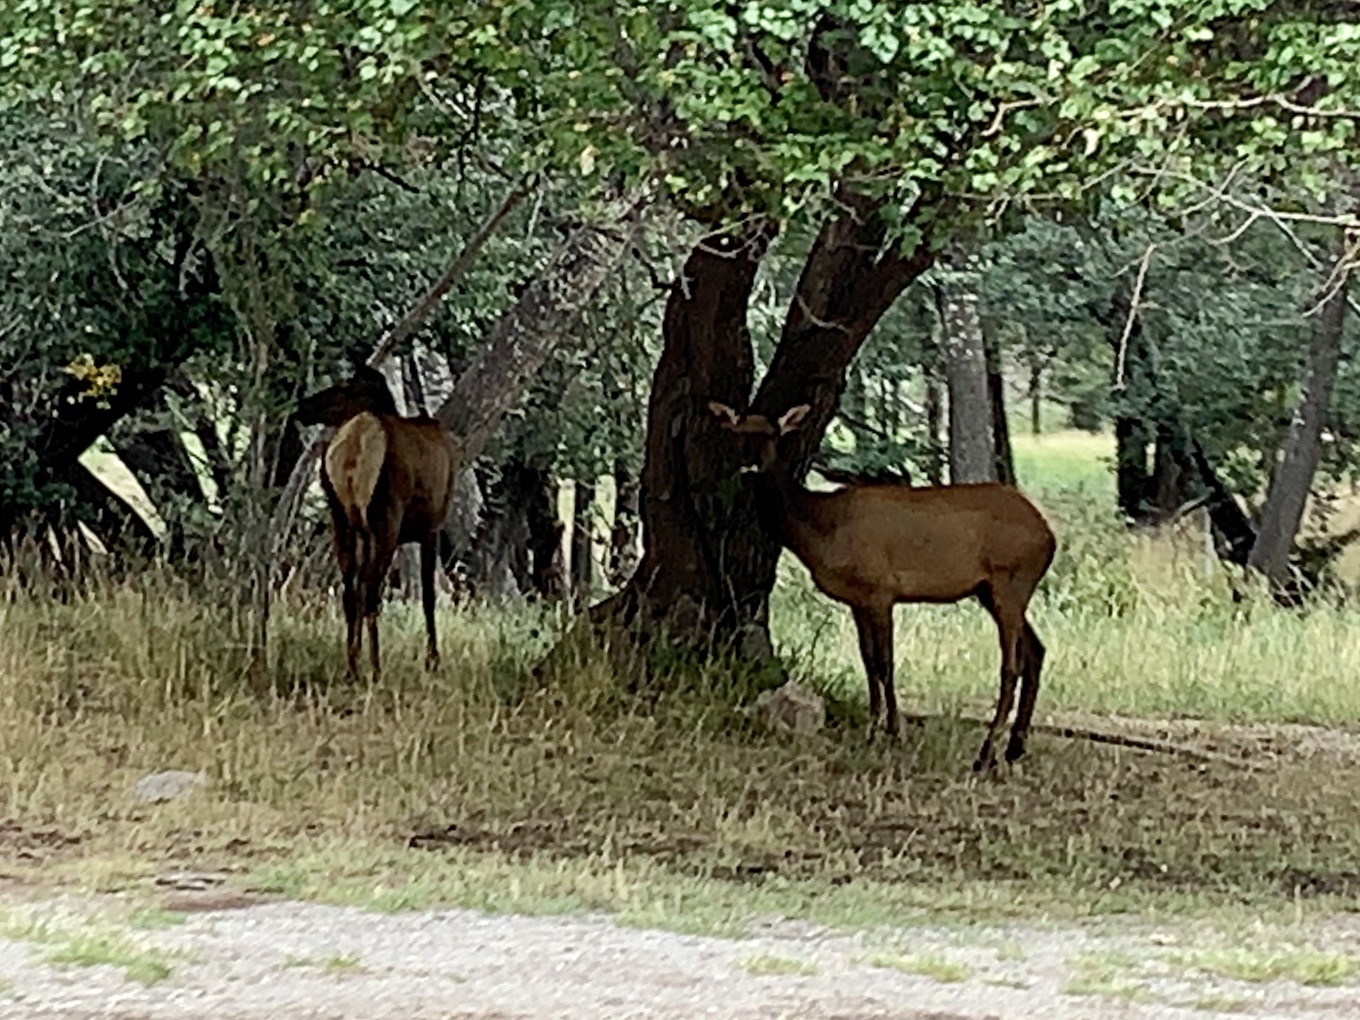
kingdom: Animalia
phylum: Chordata
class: Mammalia
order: Artiodactyla
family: Cervidae
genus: Cervus
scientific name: Cervus elaphus
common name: Red deer
